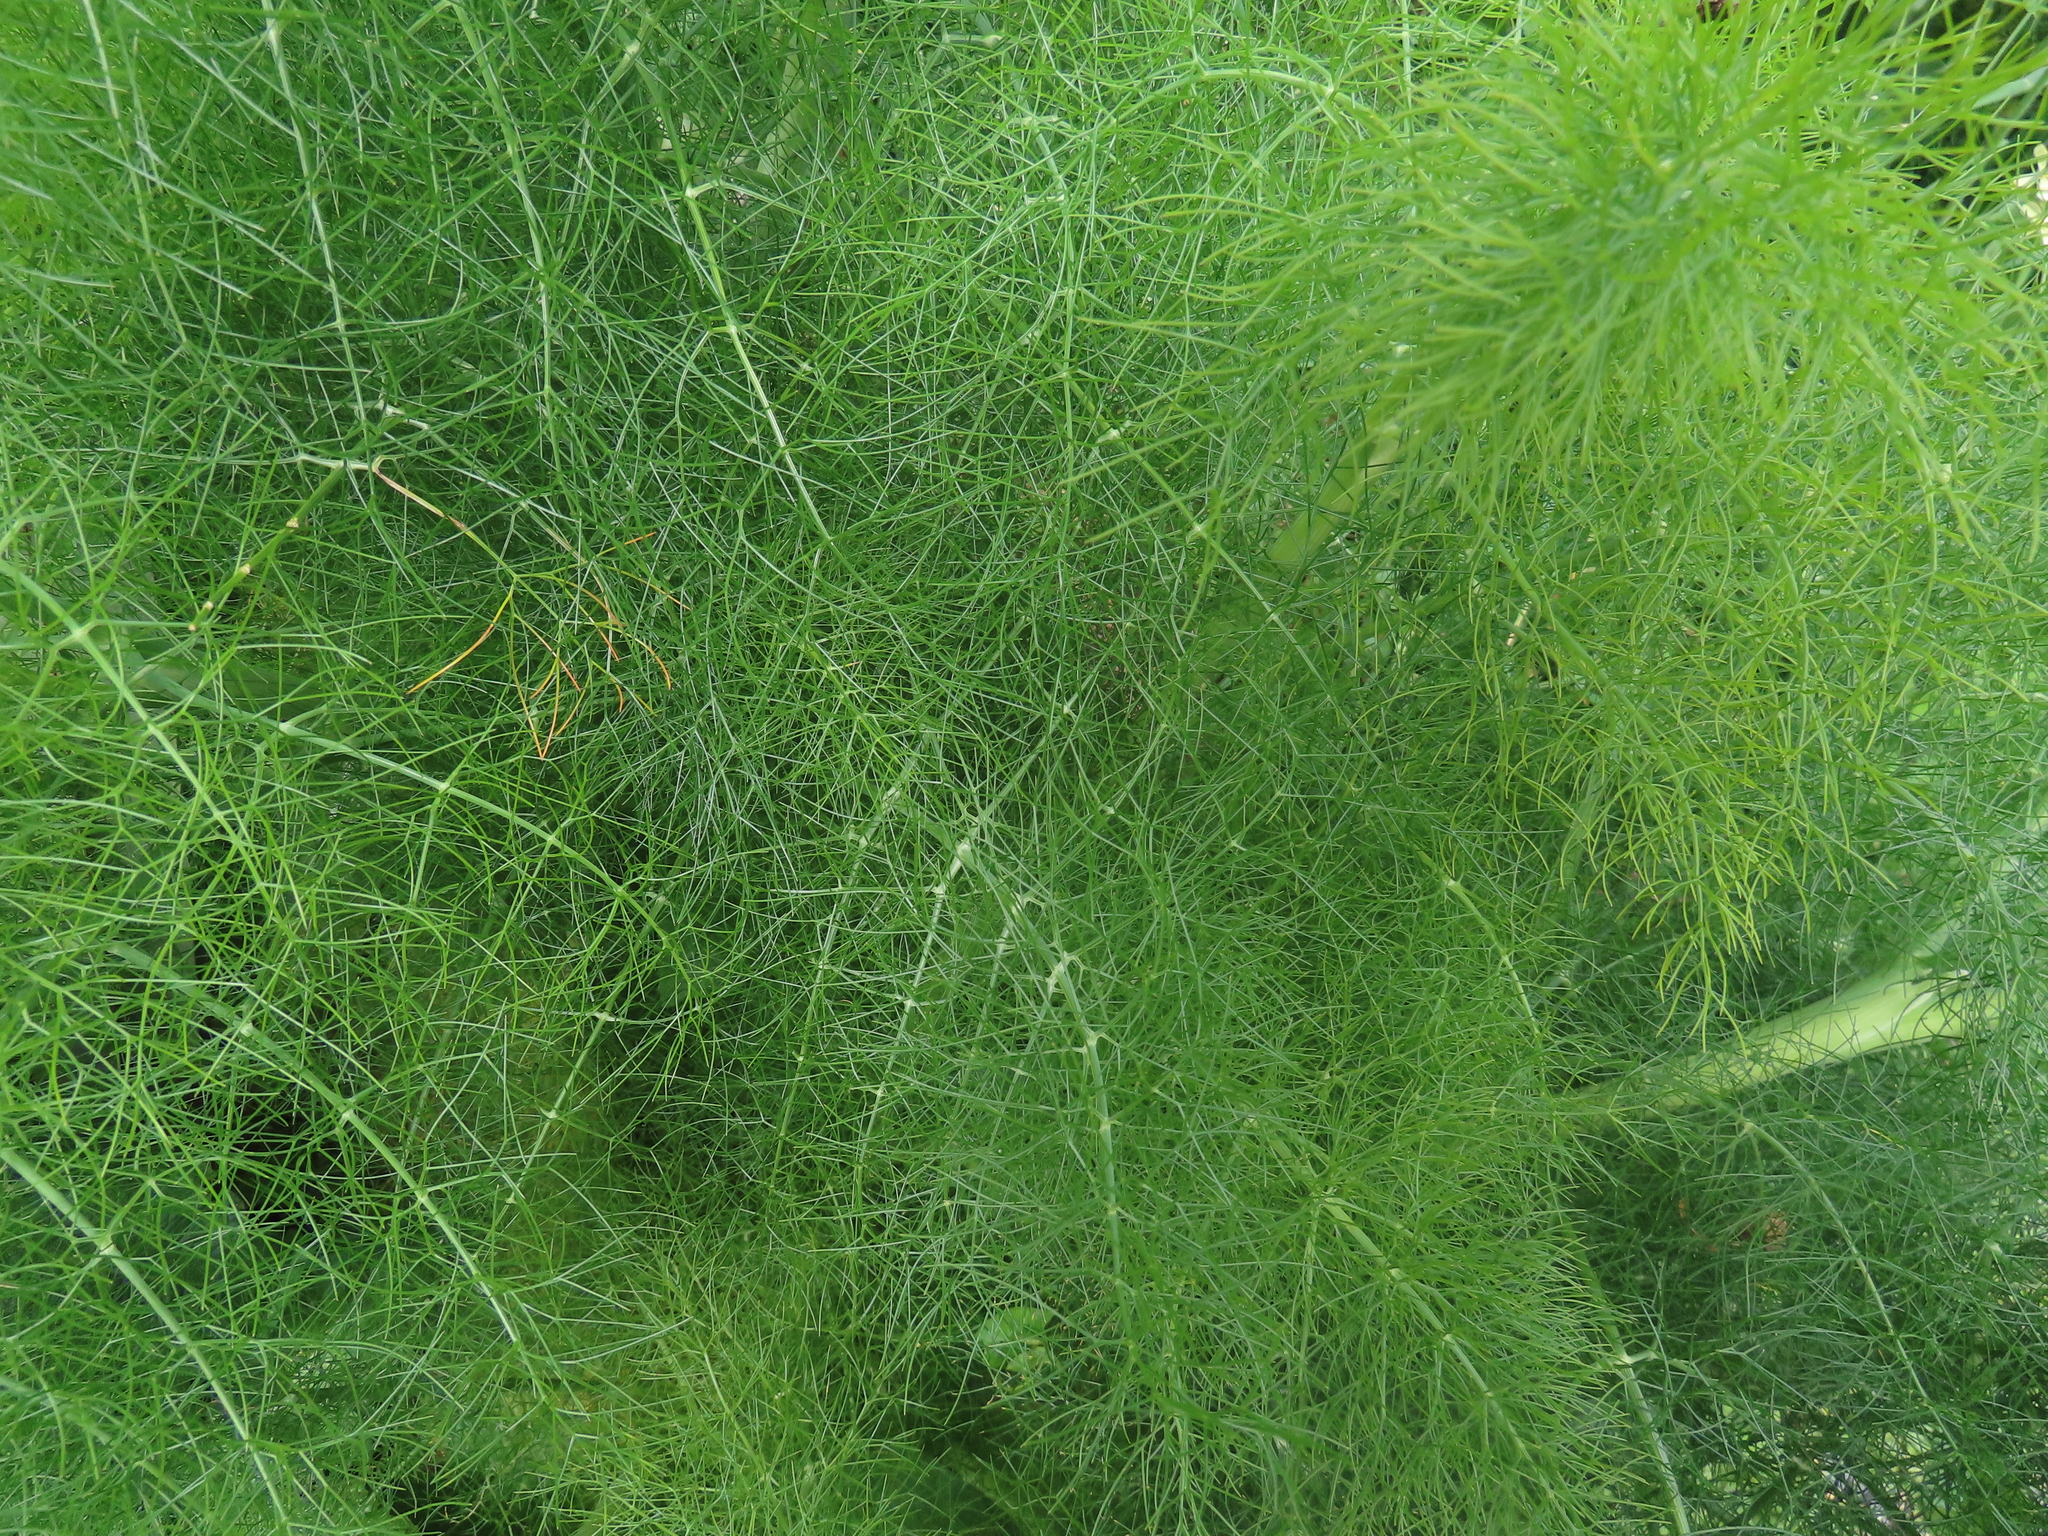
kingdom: Plantae
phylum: Tracheophyta
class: Magnoliopsida
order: Apiales
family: Apiaceae
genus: Foeniculum
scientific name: Foeniculum vulgare
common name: Fennel
